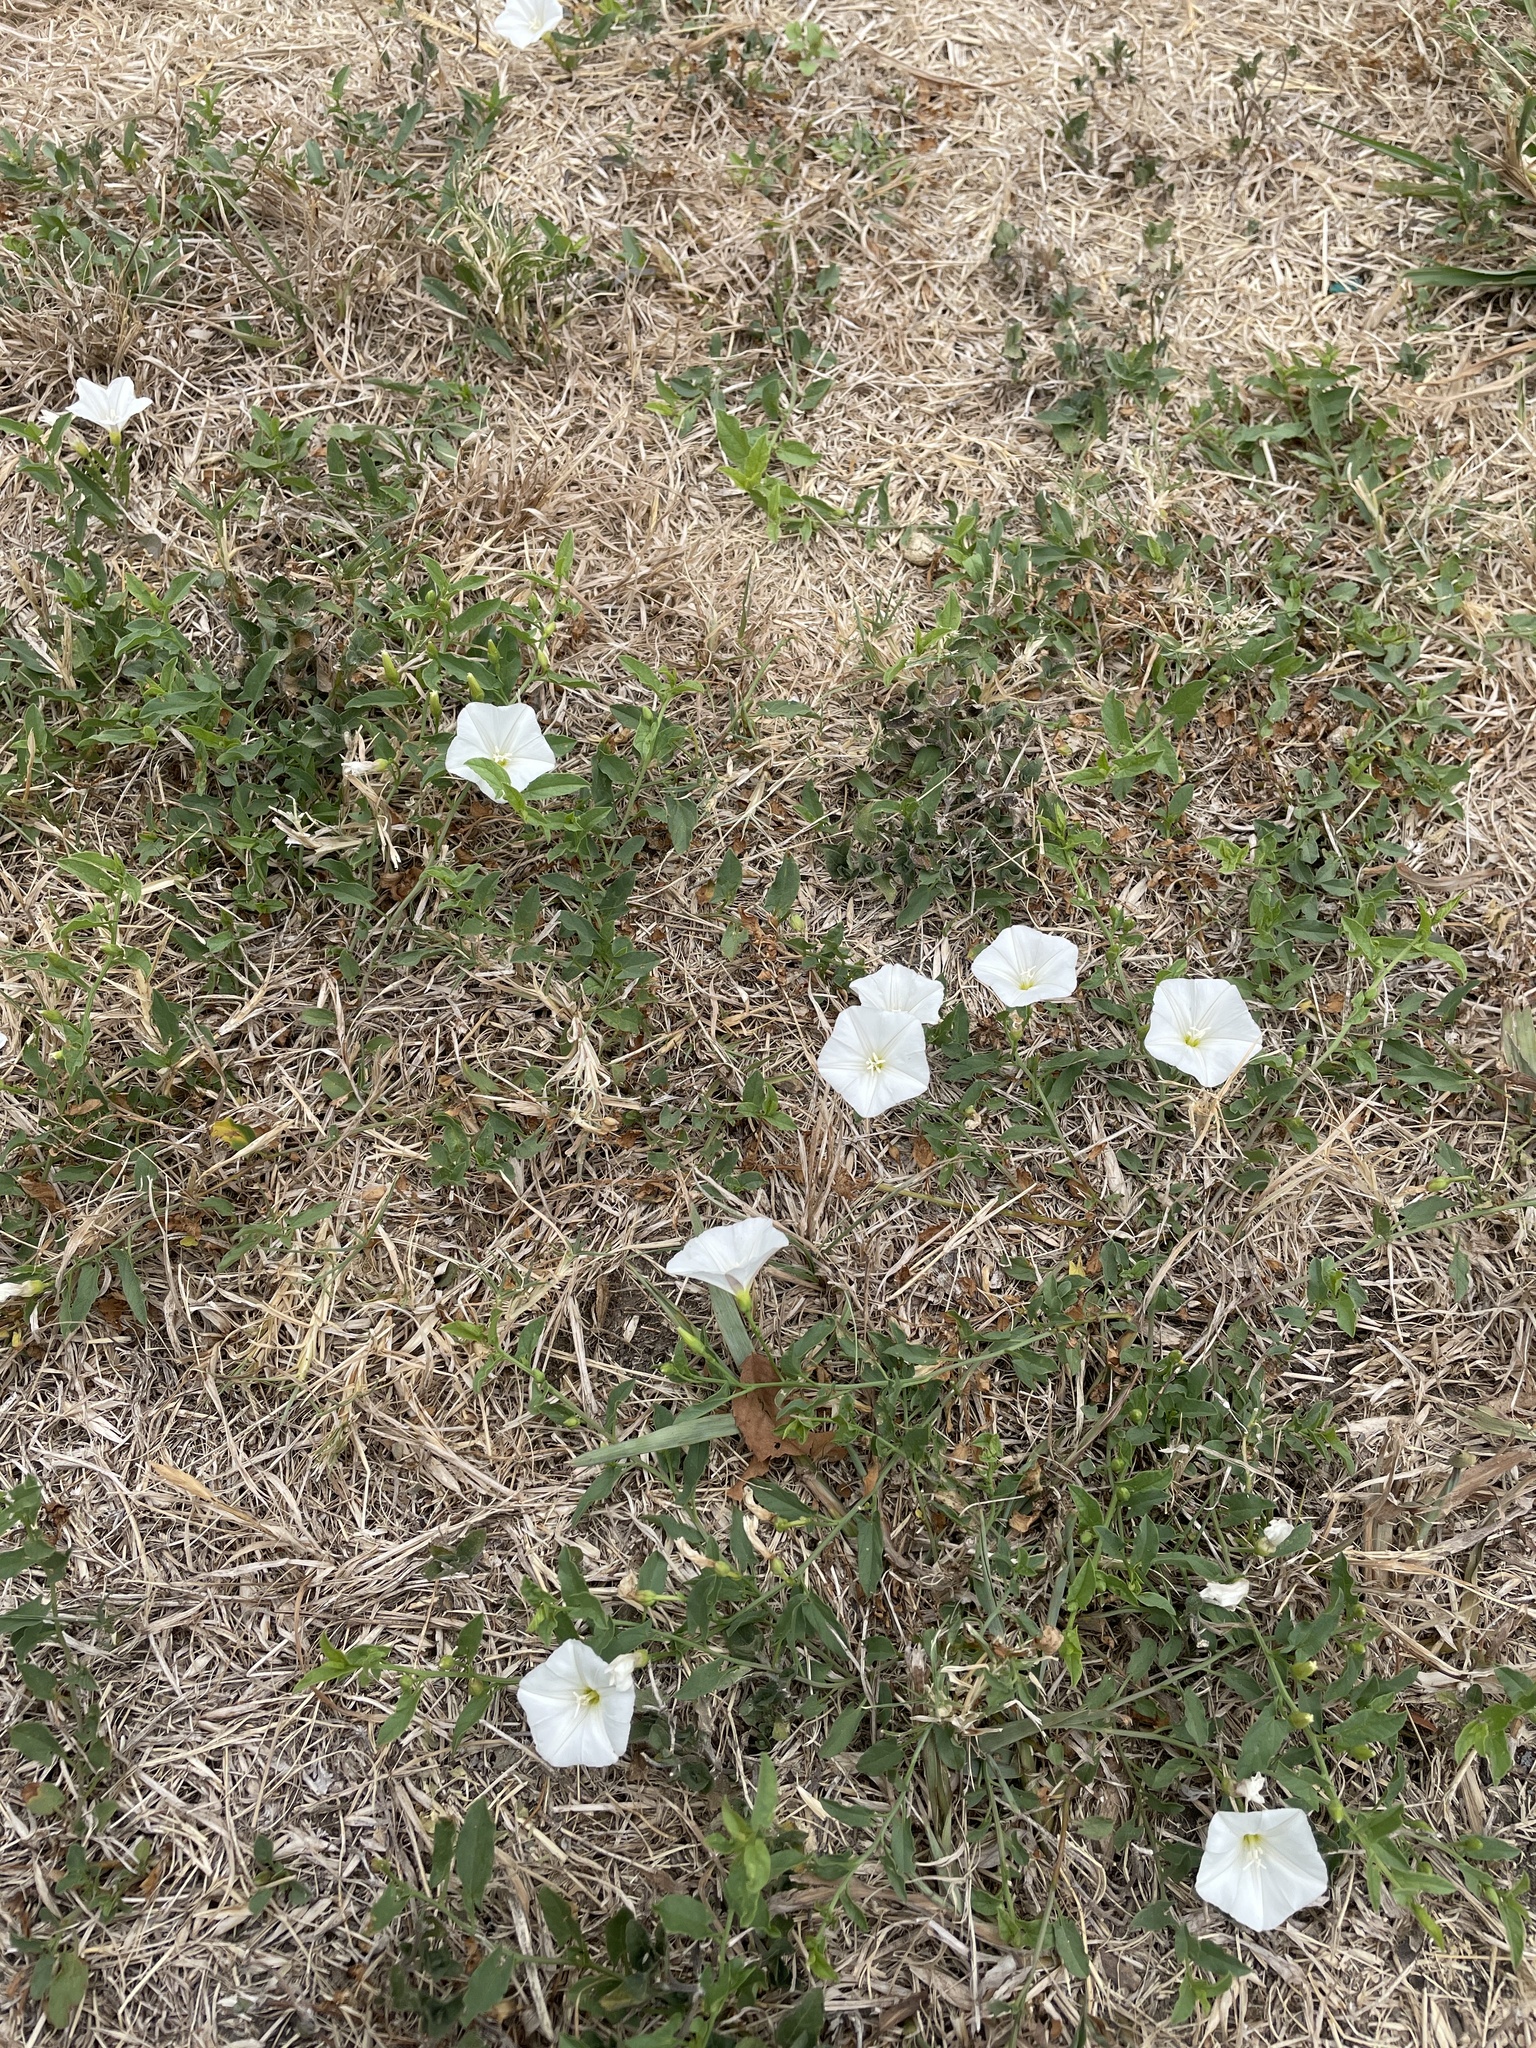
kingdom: Plantae
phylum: Tracheophyta
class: Magnoliopsida
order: Solanales
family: Convolvulaceae
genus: Convolvulus
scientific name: Convolvulus arvensis
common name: Field bindweed
